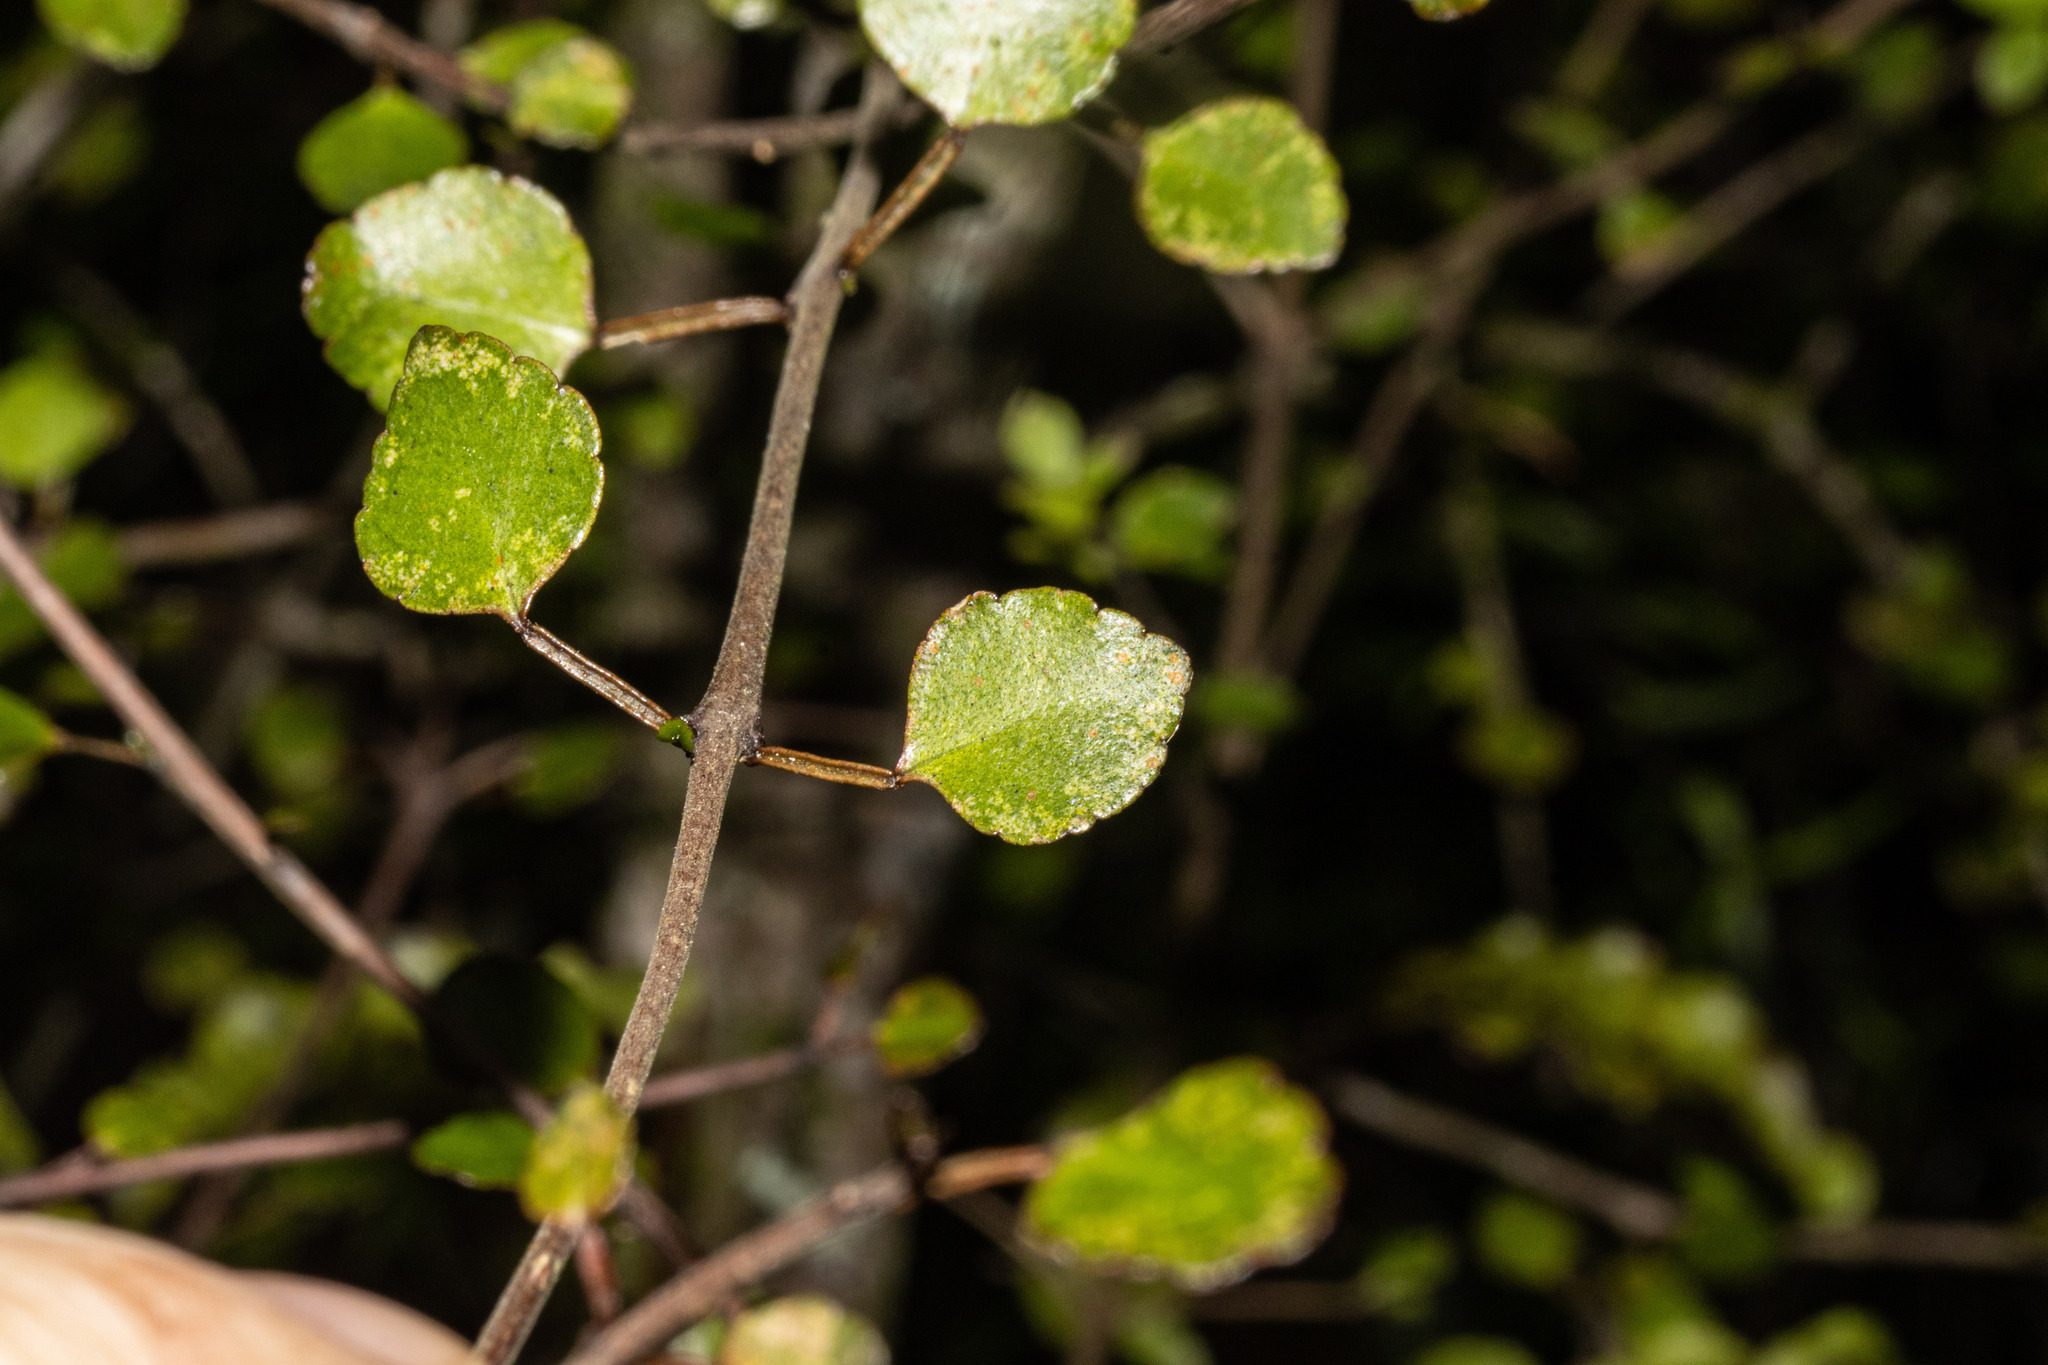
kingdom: Plantae
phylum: Tracheophyta
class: Magnoliopsida
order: Sapindales
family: Rutaceae
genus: Melicope
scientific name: Melicope simplex
